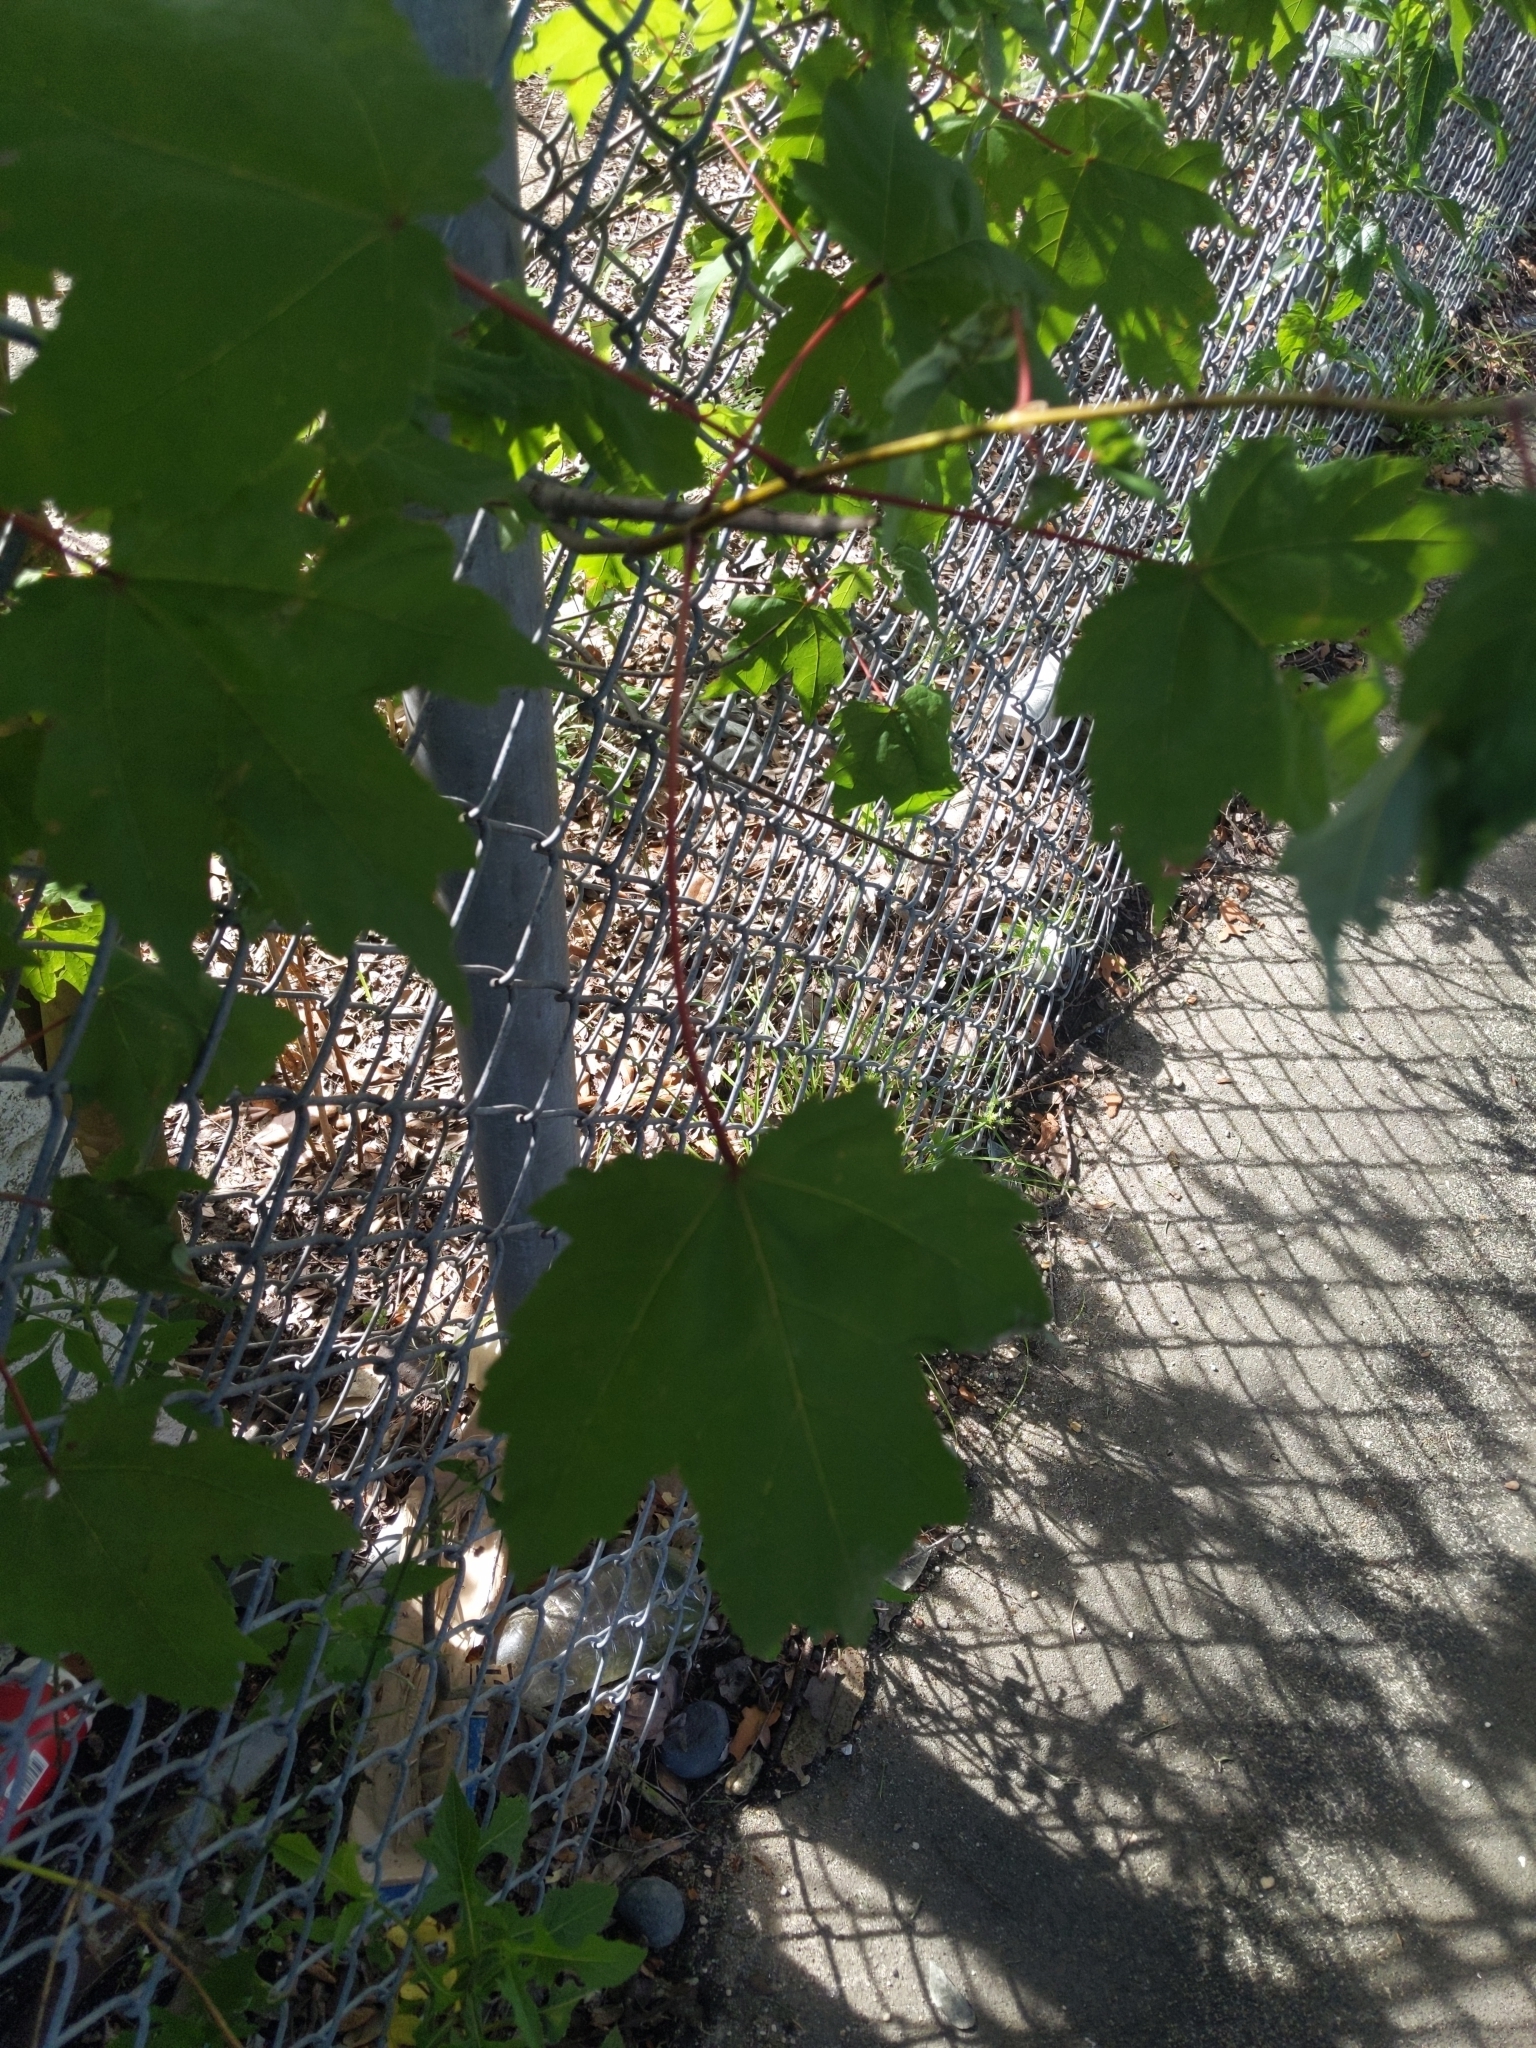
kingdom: Plantae
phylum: Tracheophyta
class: Magnoliopsida
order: Sapindales
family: Sapindaceae
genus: Acer
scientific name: Acer rubrum
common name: Red maple
